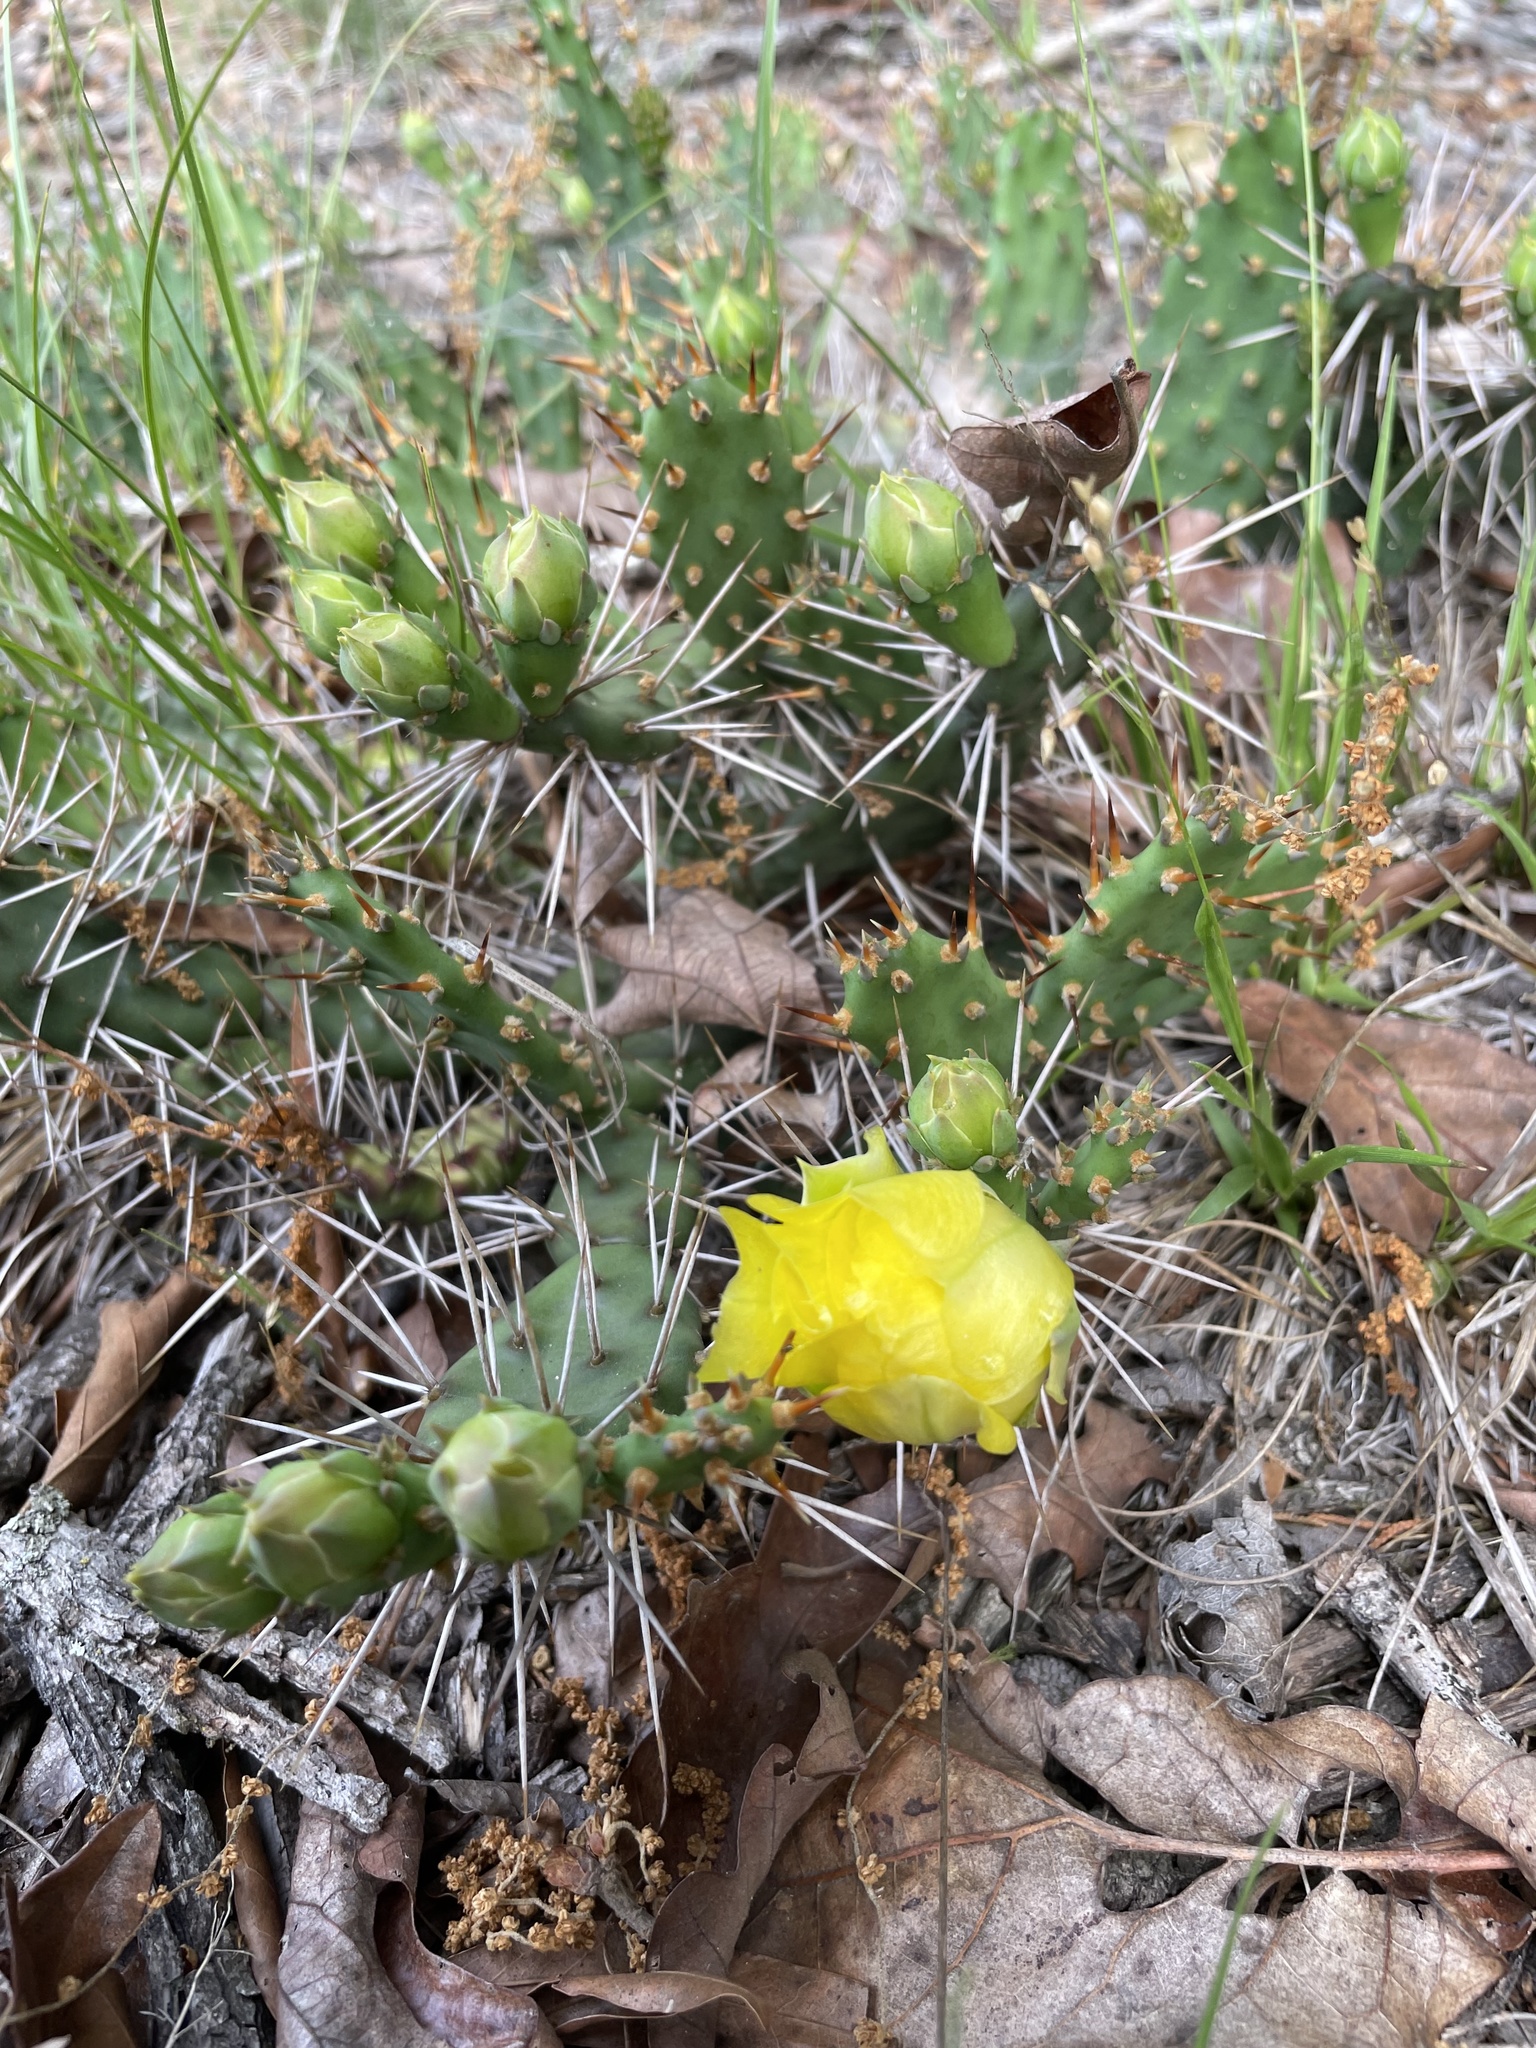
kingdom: Plantae
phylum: Tracheophyta
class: Magnoliopsida
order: Caryophyllales
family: Cactaceae
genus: Opuntia
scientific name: Opuntia drummondii
